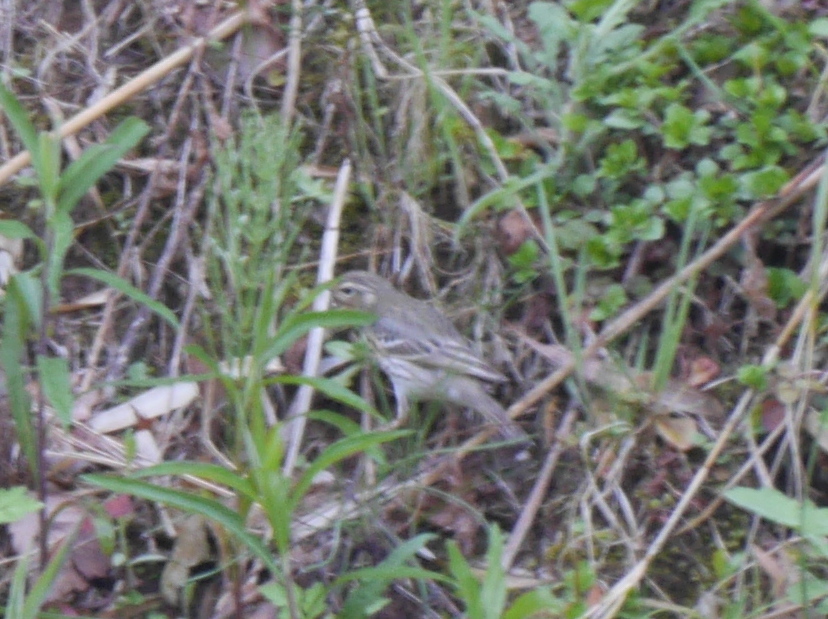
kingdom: Animalia
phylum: Chordata
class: Aves
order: Passeriformes
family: Motacillidae
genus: Anthus
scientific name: Anthus hodgsoni
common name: Olive-backed pipit
